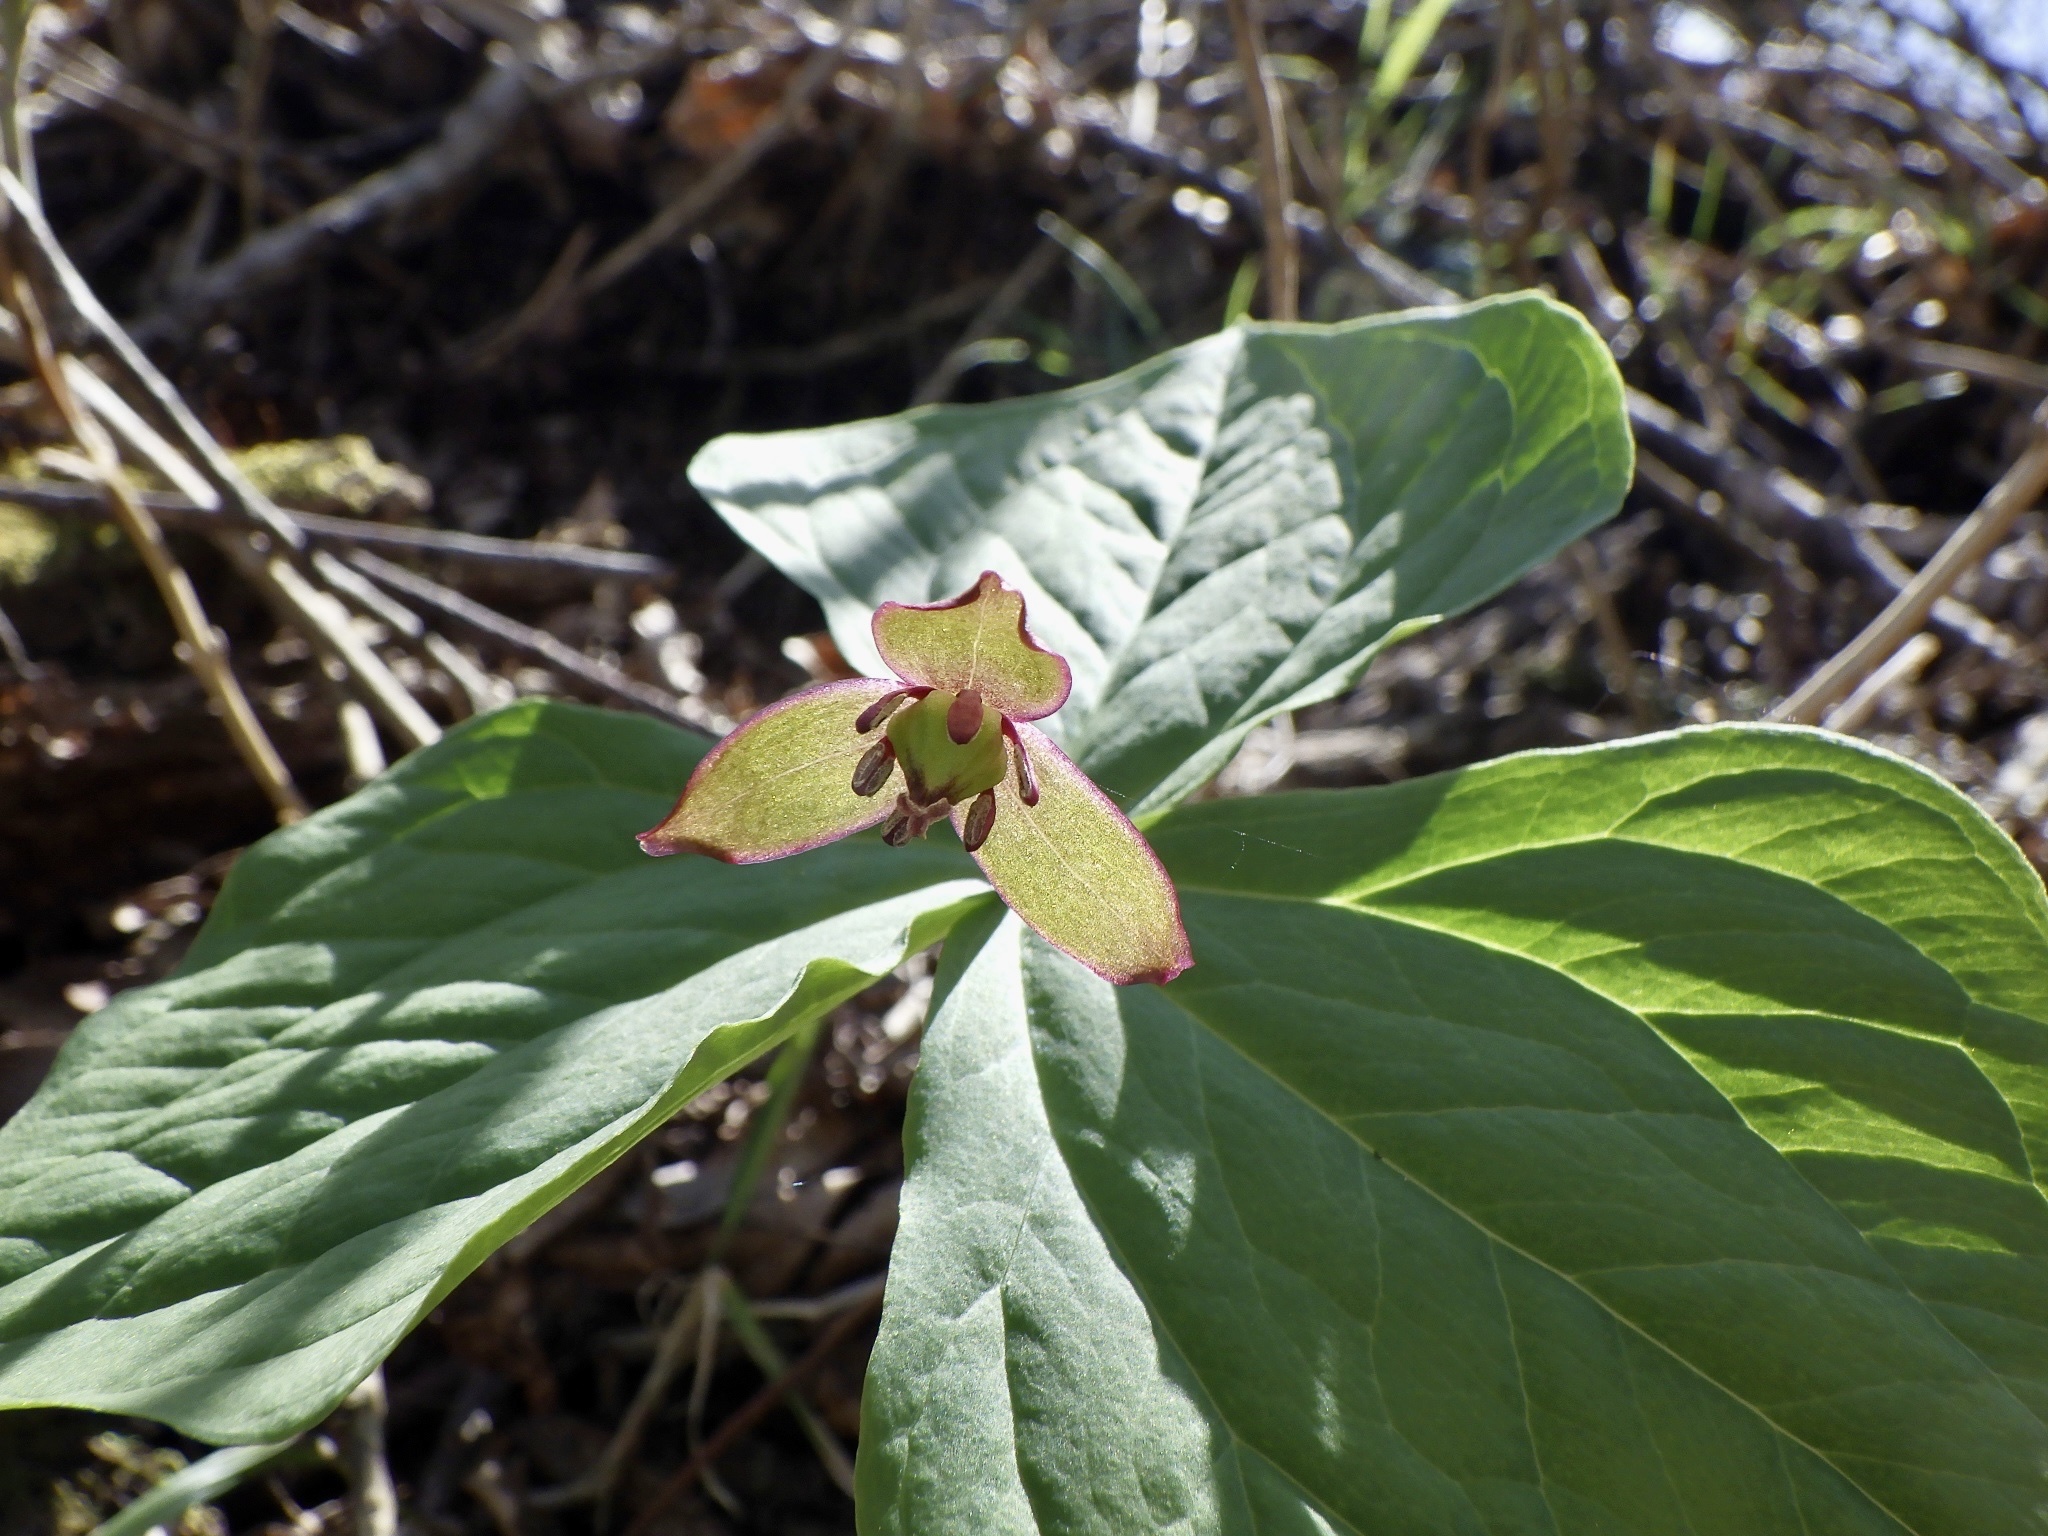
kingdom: Plantae
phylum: Tracheophyta
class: Liliopsida
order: Liliales
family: Melanthiaceae
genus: Trillium
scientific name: Trillium apetalon
